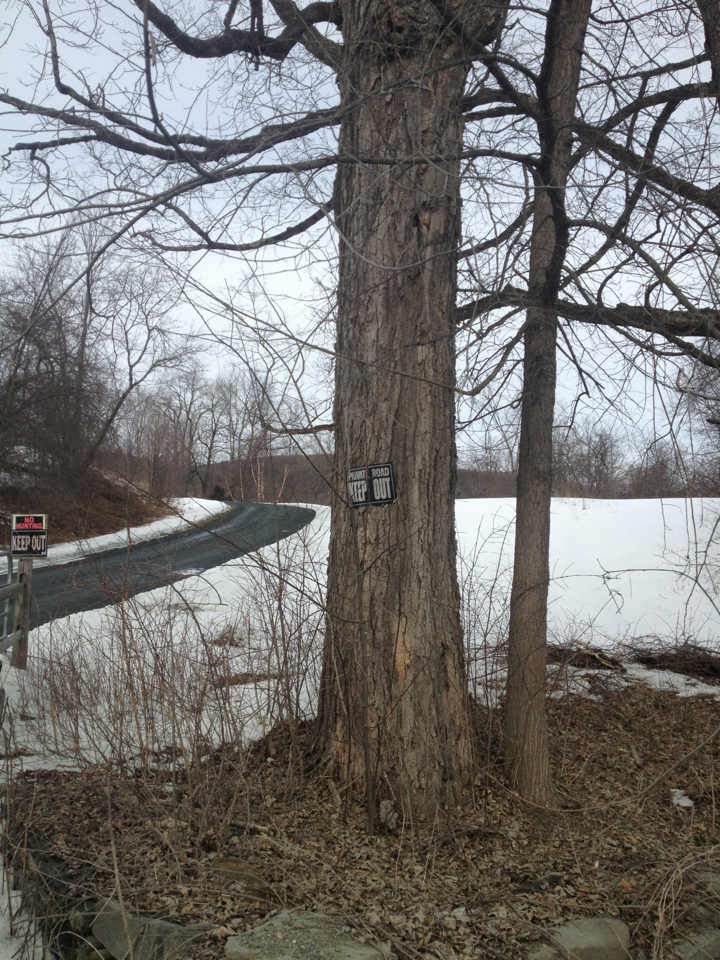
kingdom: Plantae
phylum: Tracheophyta
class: Magnoliopsida
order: Sapindales
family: Sapindaceae
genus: Acer
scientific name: Acer saccharum
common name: Sugar maple
